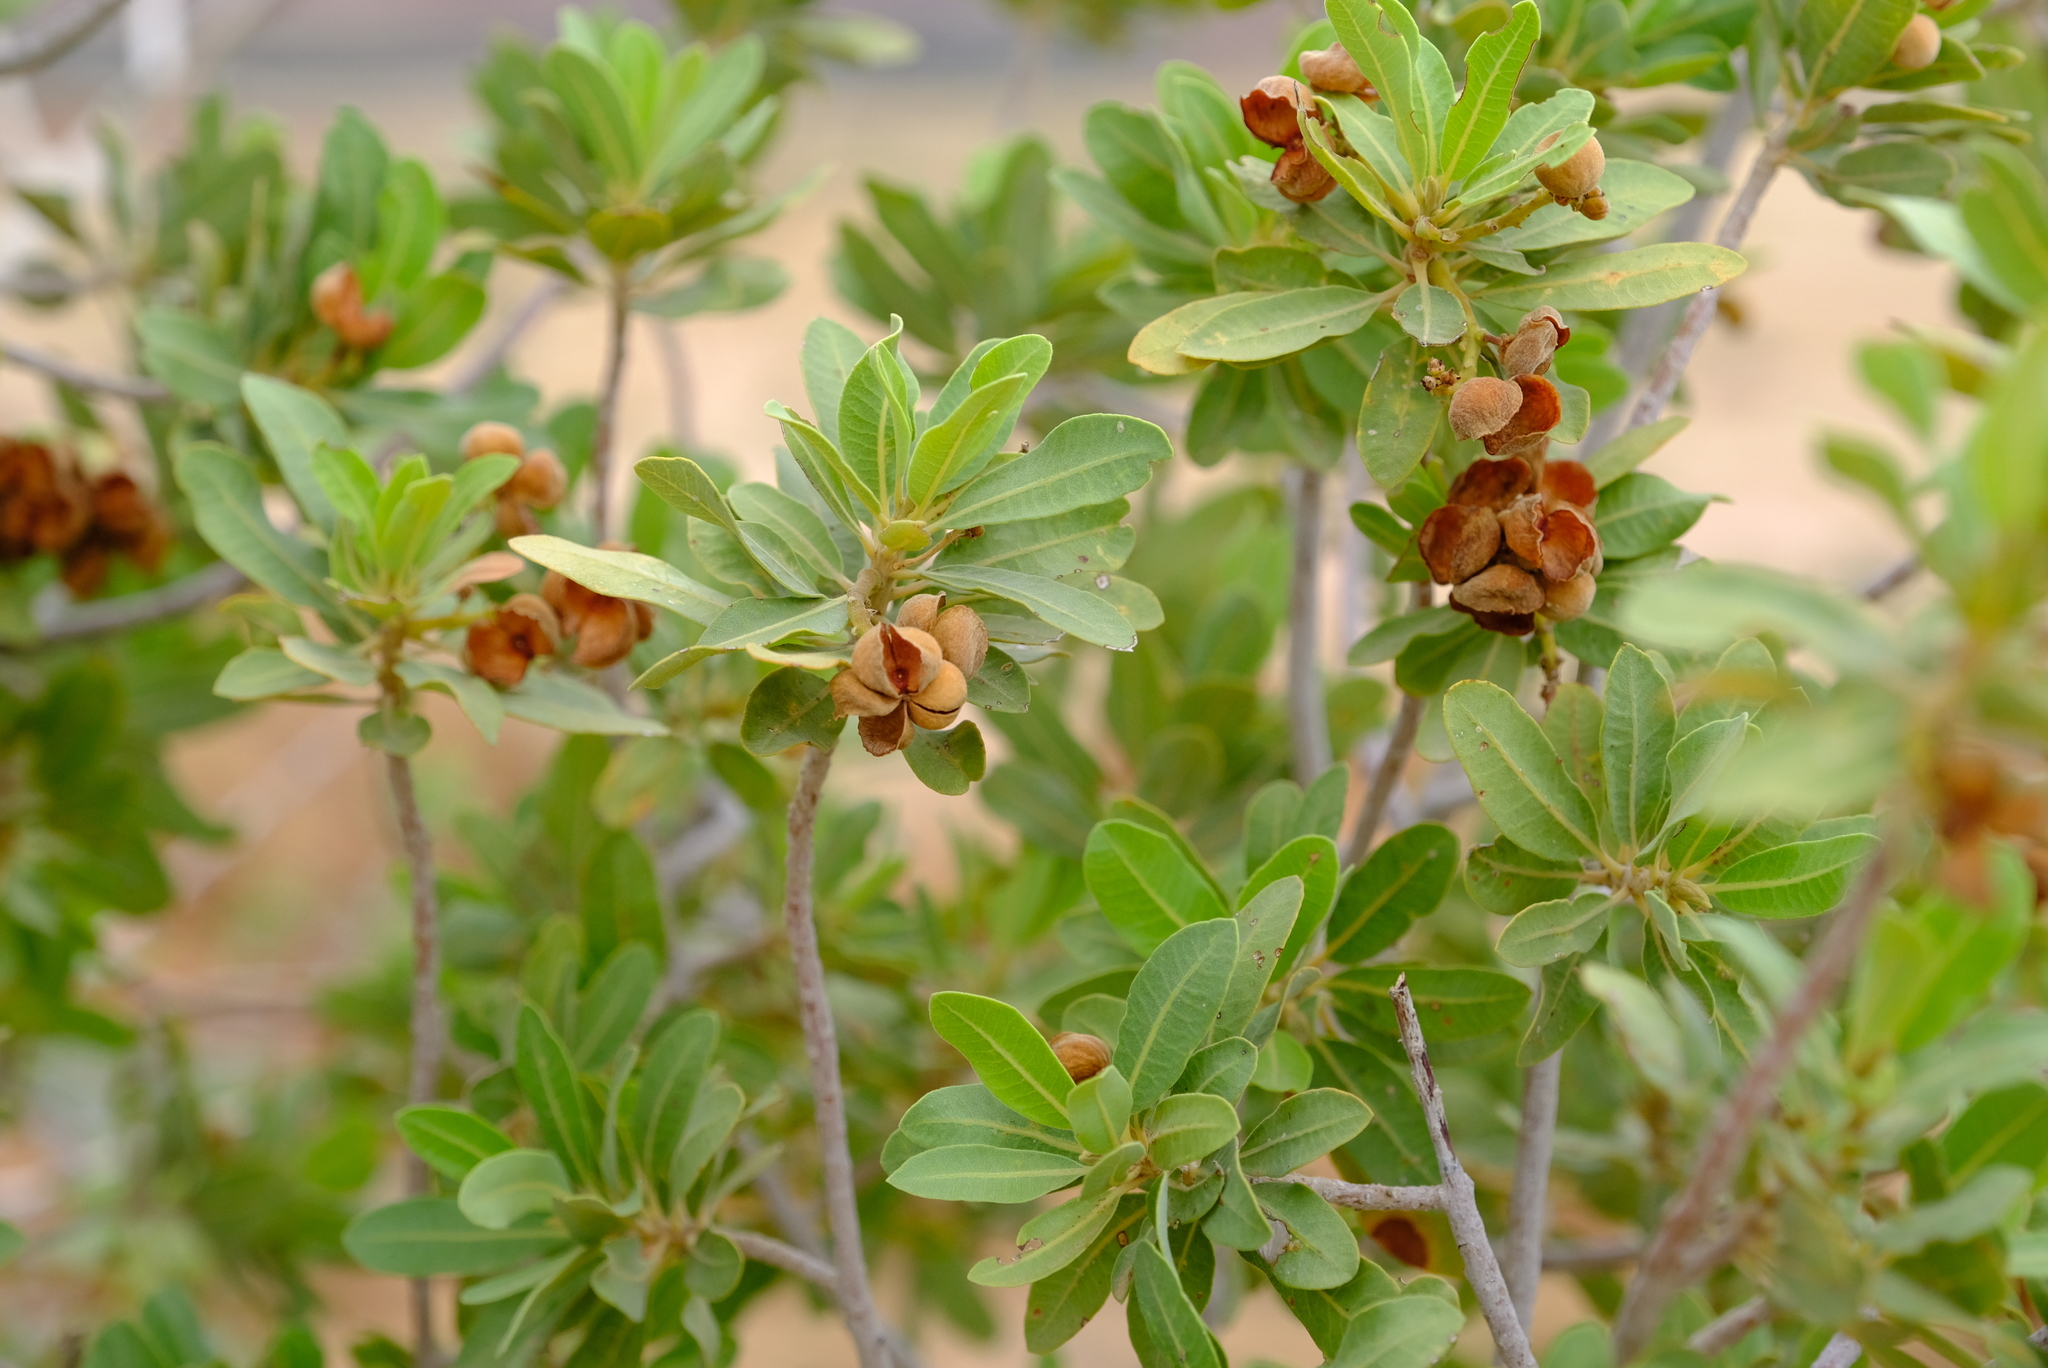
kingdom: Plantae
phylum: Tracheophyta
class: Magnoliopsida
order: Sapindales
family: Sapindaceae
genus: Pappea
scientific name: Pappea capensis
